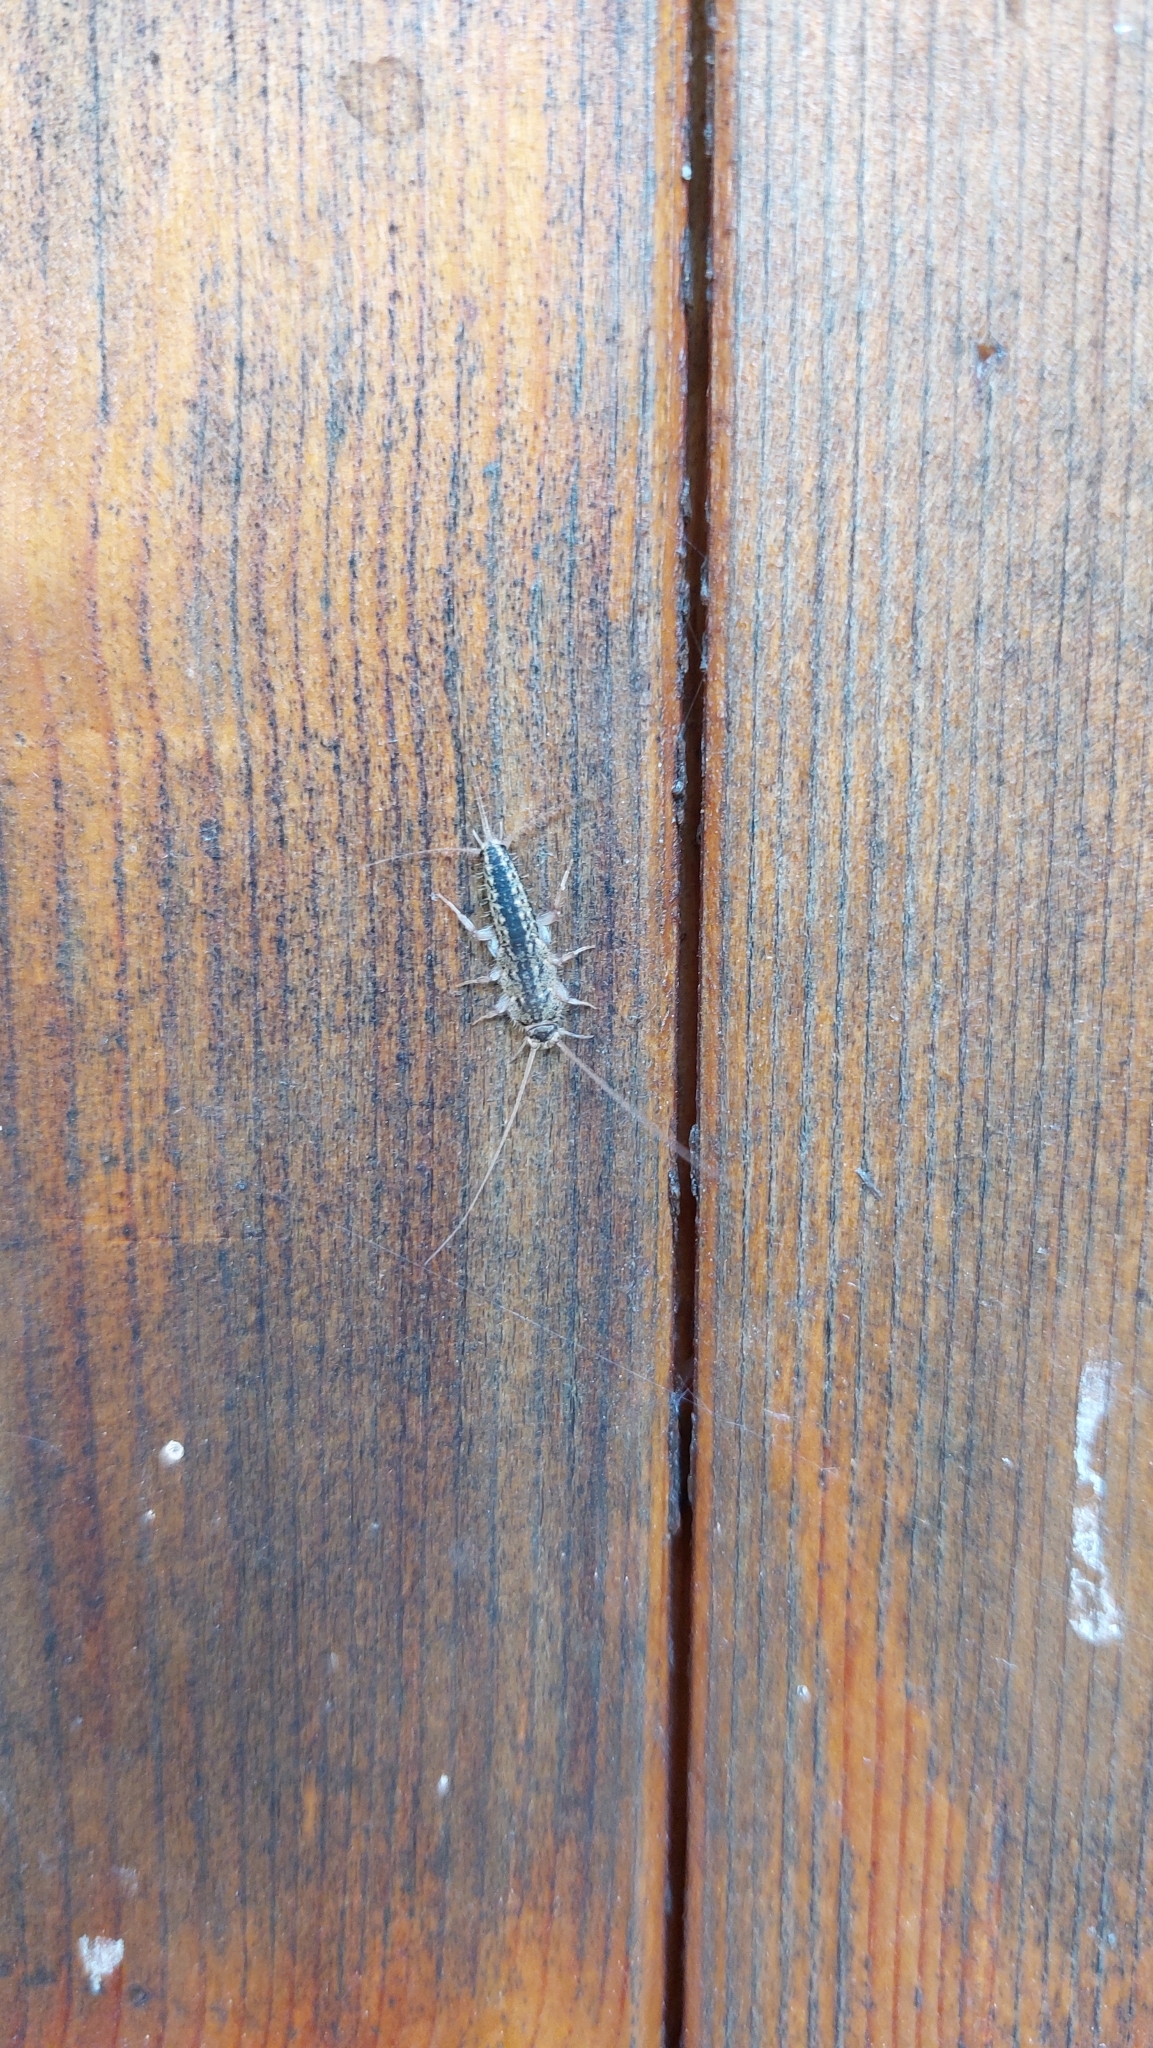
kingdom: Animalia
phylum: Arthropoda
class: Insecta
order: Zygentoma
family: Lepismatidae
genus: Ctenolepisma
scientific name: Ctenolepisma lineata
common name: Four-lined silverfish
